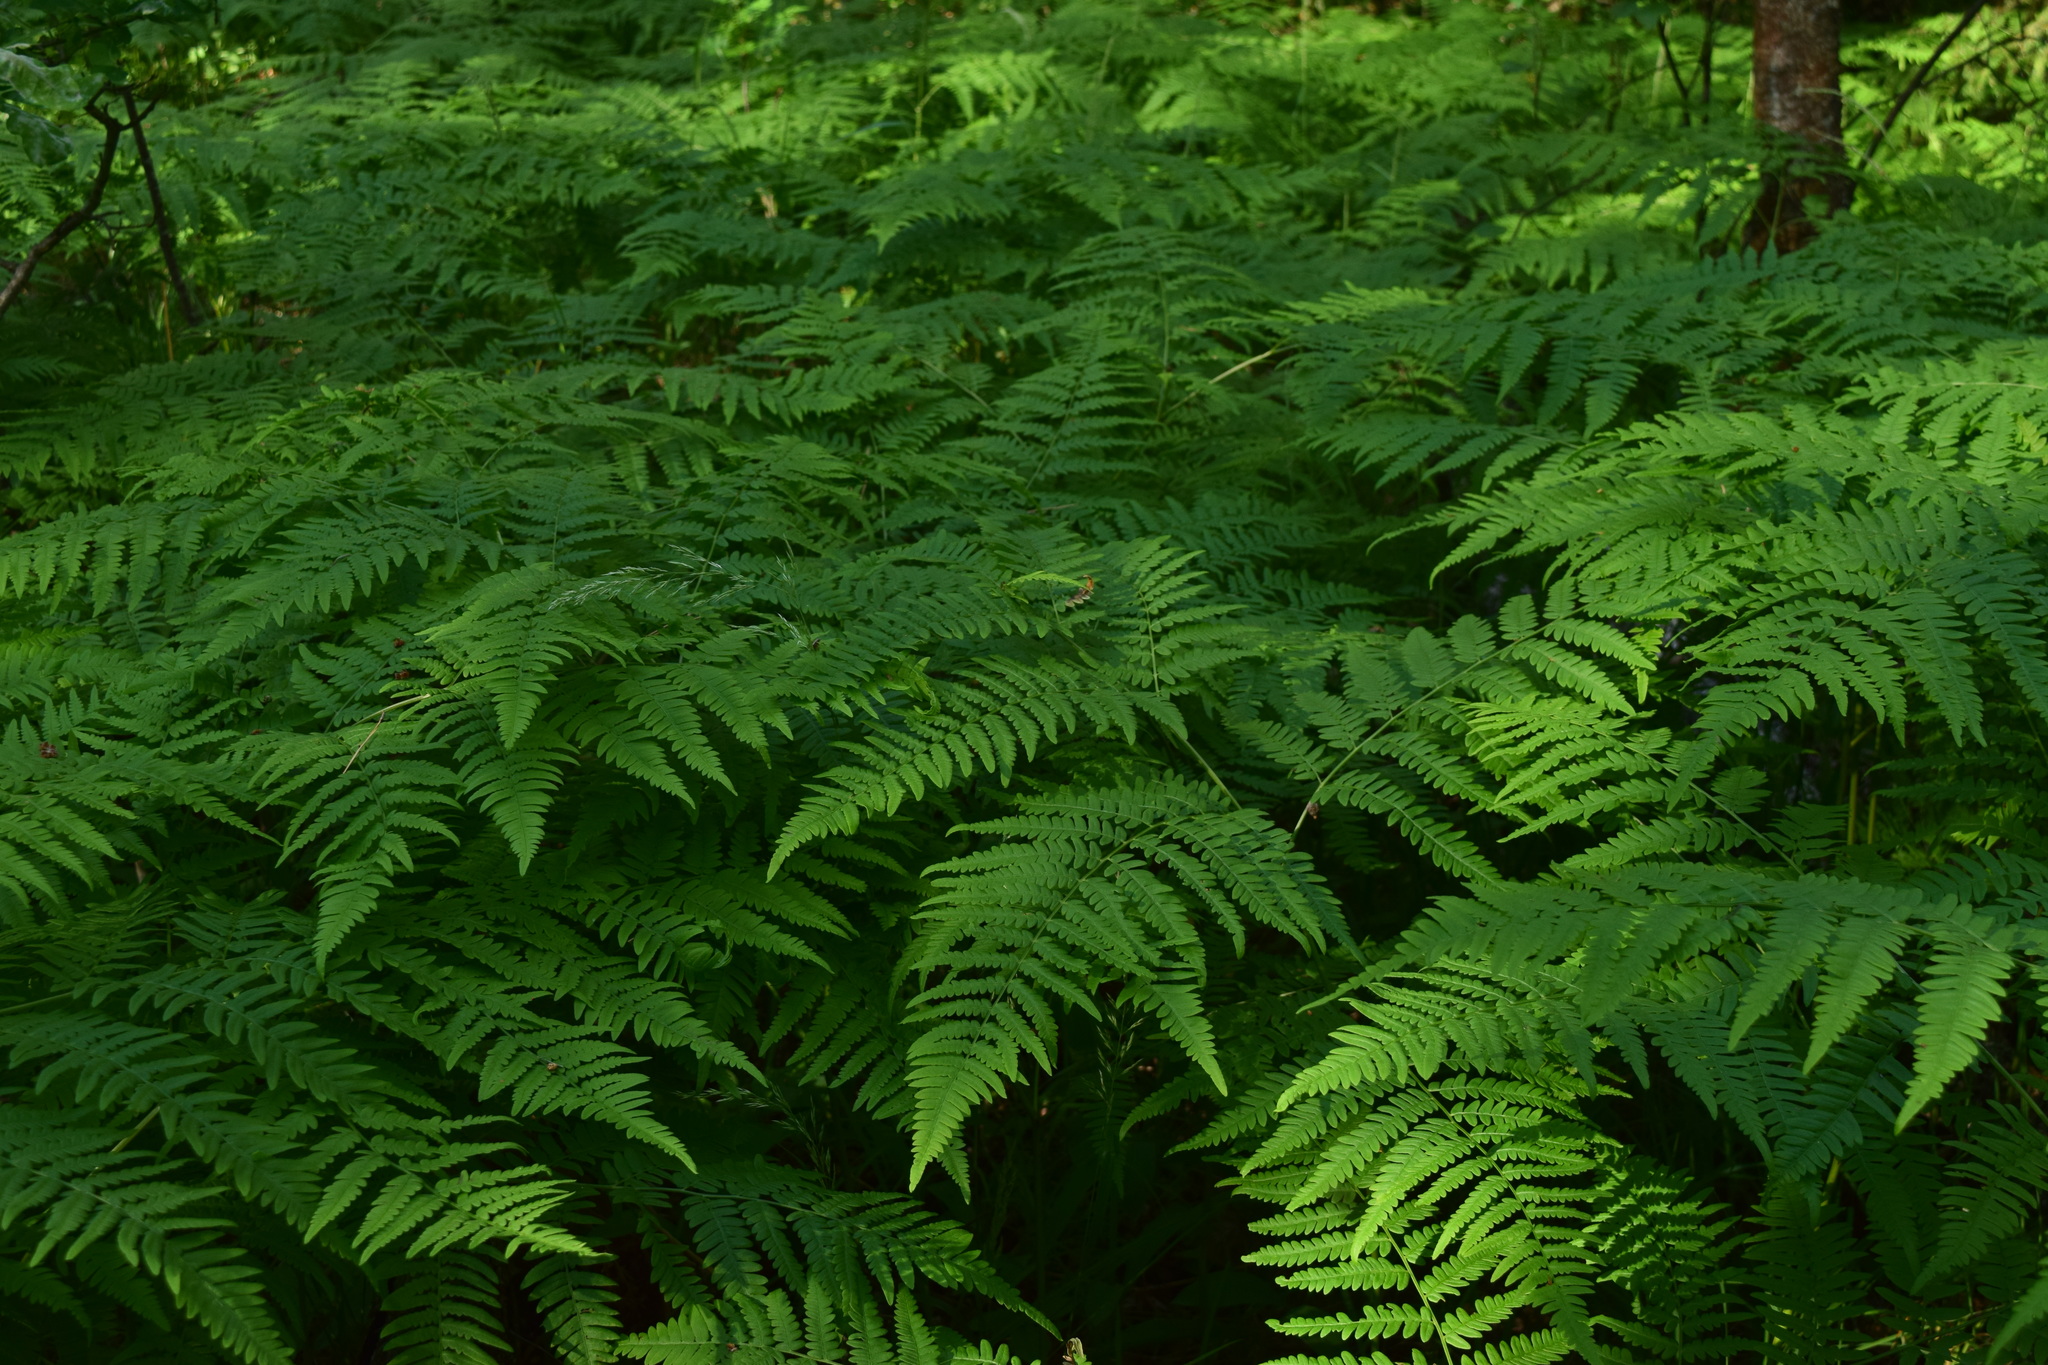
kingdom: Plantae
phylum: Tracheophyta
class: Polypodiopsida
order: Polypodiales
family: Dennstaedtiaceae
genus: Pteridium
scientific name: Pteridium aquilinum
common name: Bracken
